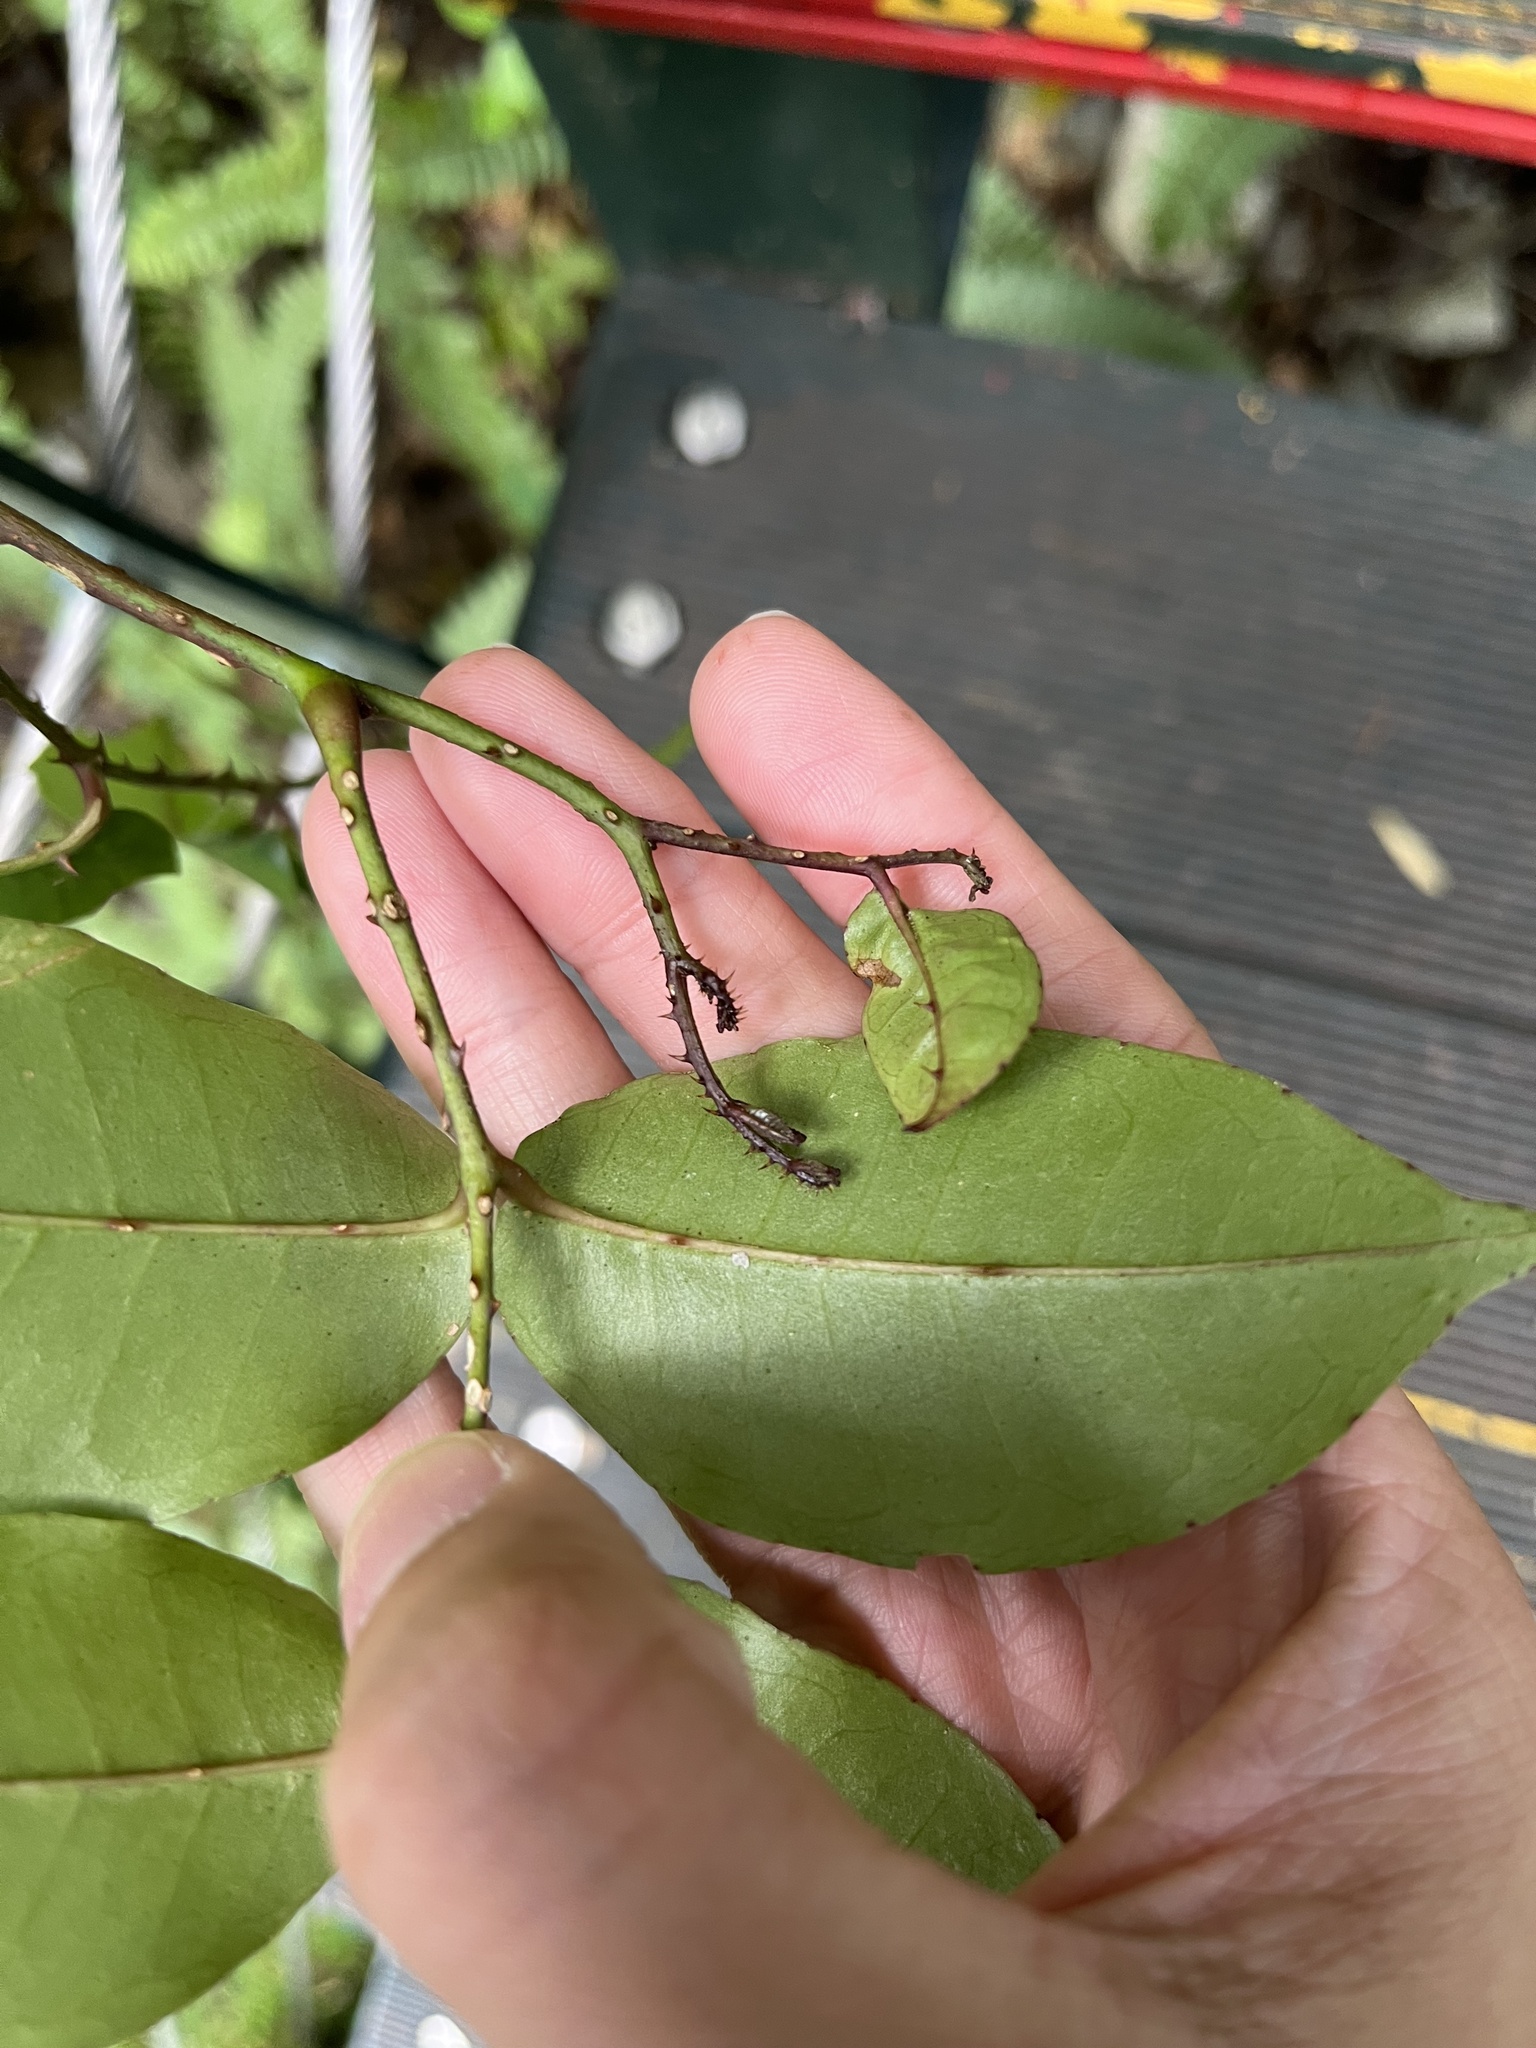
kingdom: Plantae
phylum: Tracheophyta
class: Magnoliopsida
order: Sapindales
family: Rutaceae
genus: Zanthoxylum
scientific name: Zanthoxylum nitidum
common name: Shiny-leaf prickly-ash
